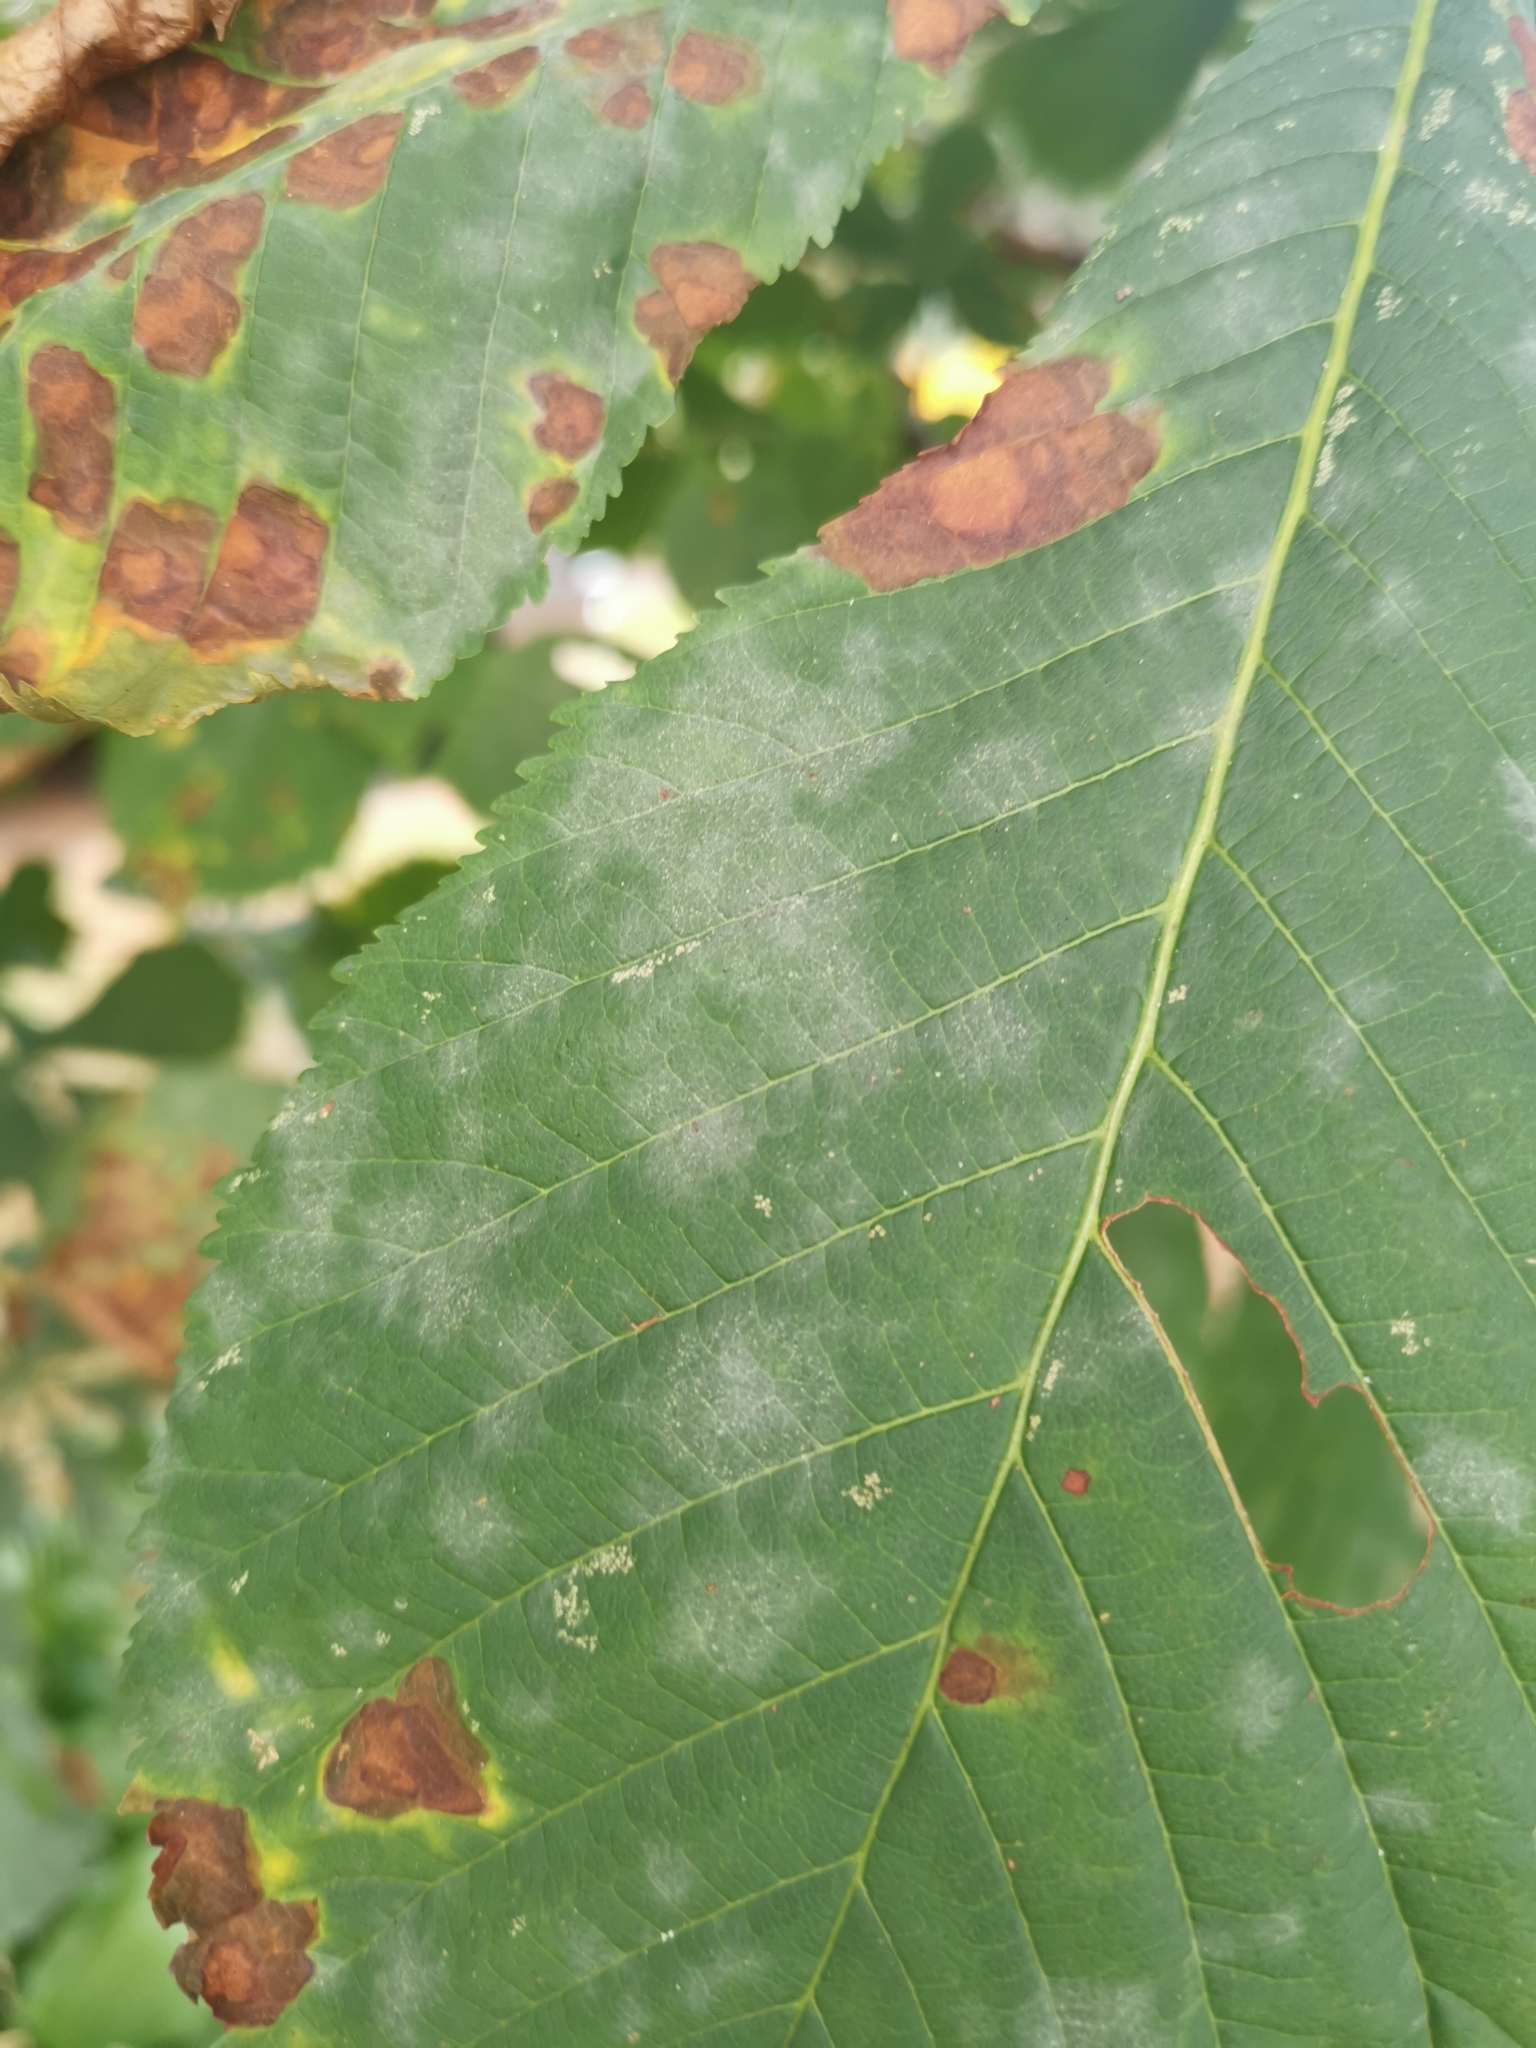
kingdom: Fungi
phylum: Ascomycota
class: Leotiomycetes
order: Helotiales
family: Erysiphaceae
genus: Erysiphe
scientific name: Erysiphe flexuosa
